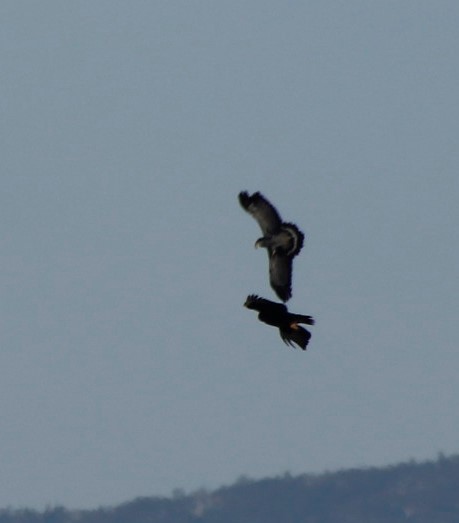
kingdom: Animalia
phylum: Chordata
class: Aves
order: Accipitriformes
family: Accipitridae
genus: Aquila
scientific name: Aquila verreauxii
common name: Verreaux's eagle
